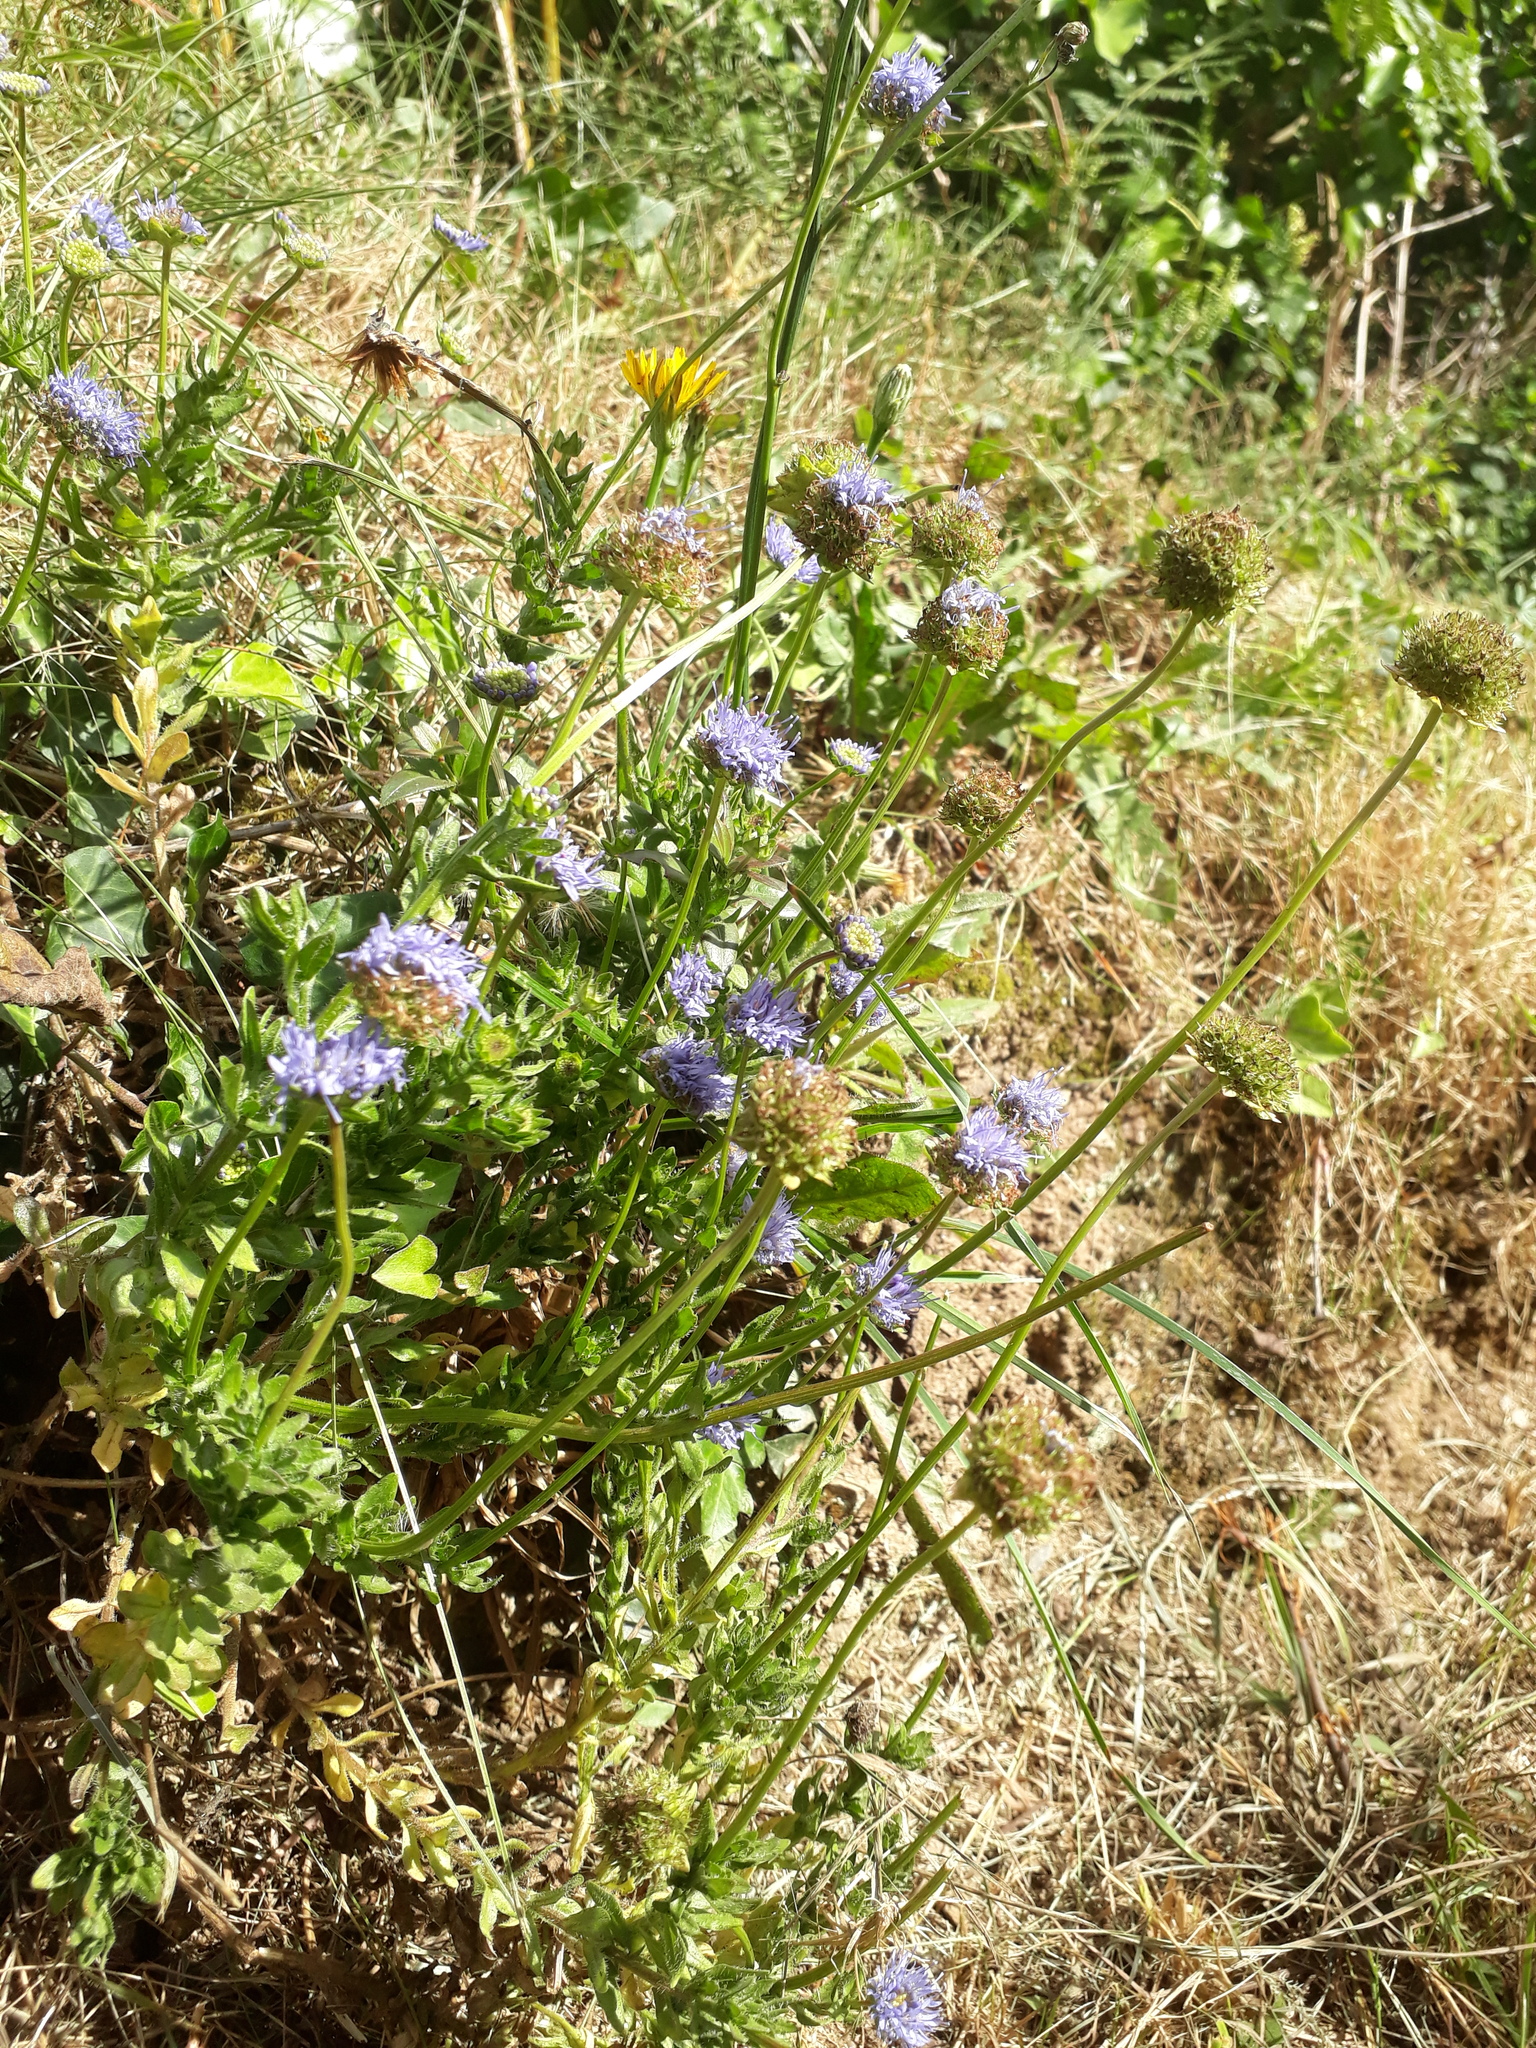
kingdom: Plantae
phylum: Tracheophyta
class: Magnoliopsida
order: Asterales
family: Campanulaceae
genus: Jasione
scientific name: Jasione montana
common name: Sheep's-bit
